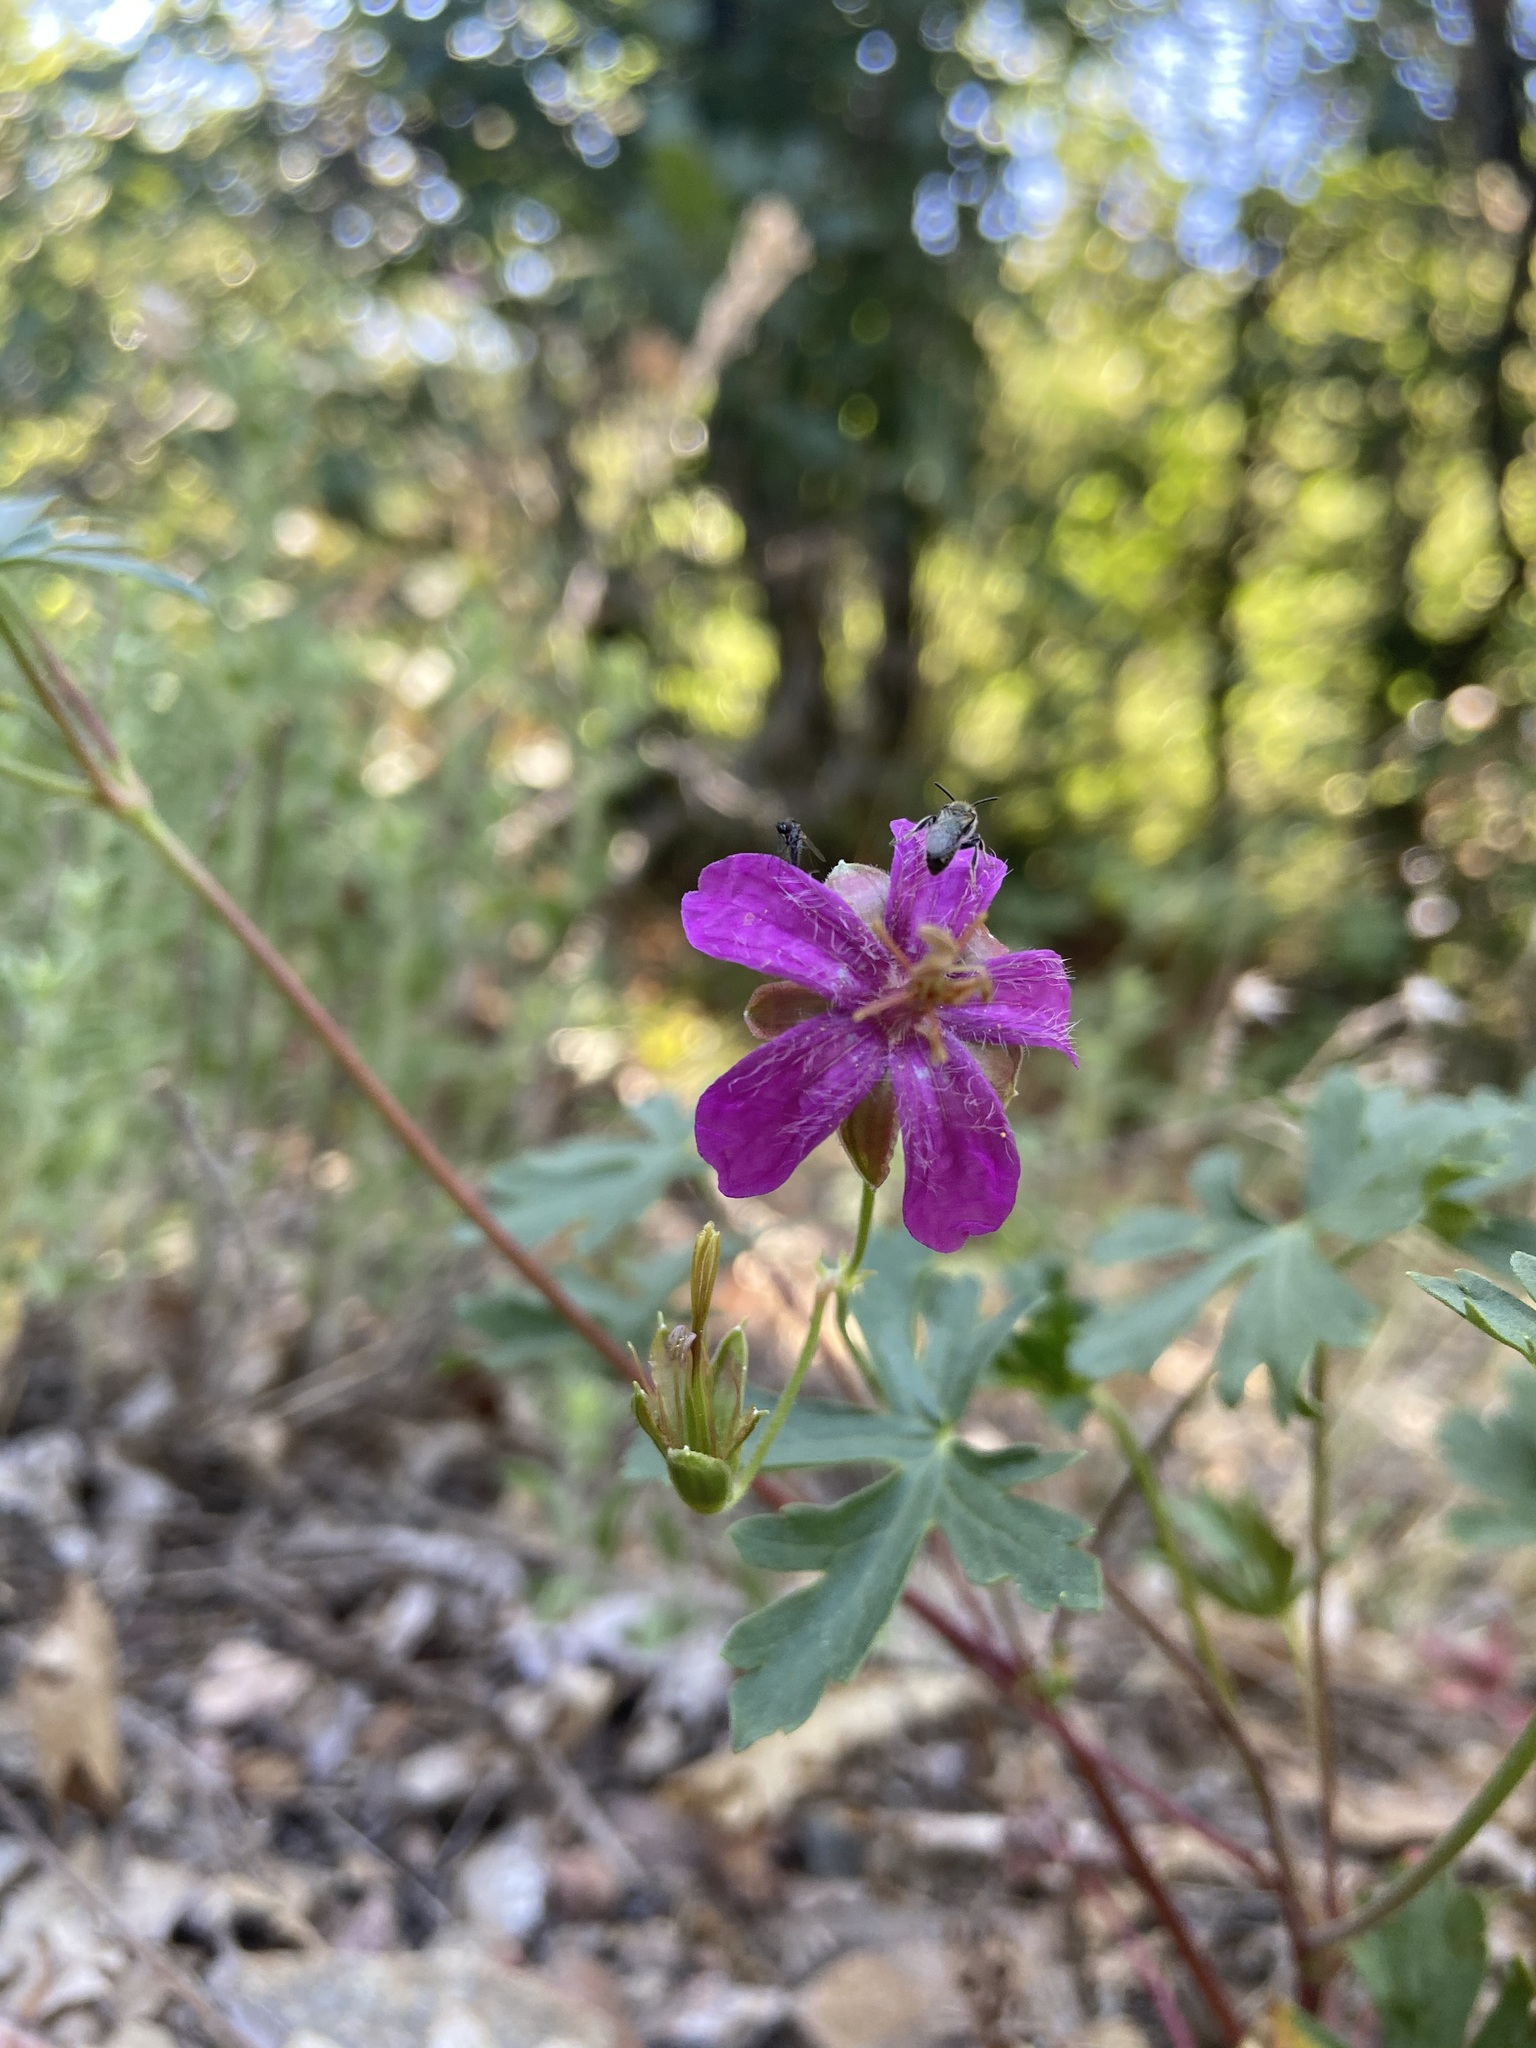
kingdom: Plantae
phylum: Tracheophyta
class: Magnoliopsida
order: Geraniales
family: Geraniaceae
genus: Geranium
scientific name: Geranium caespitosum
